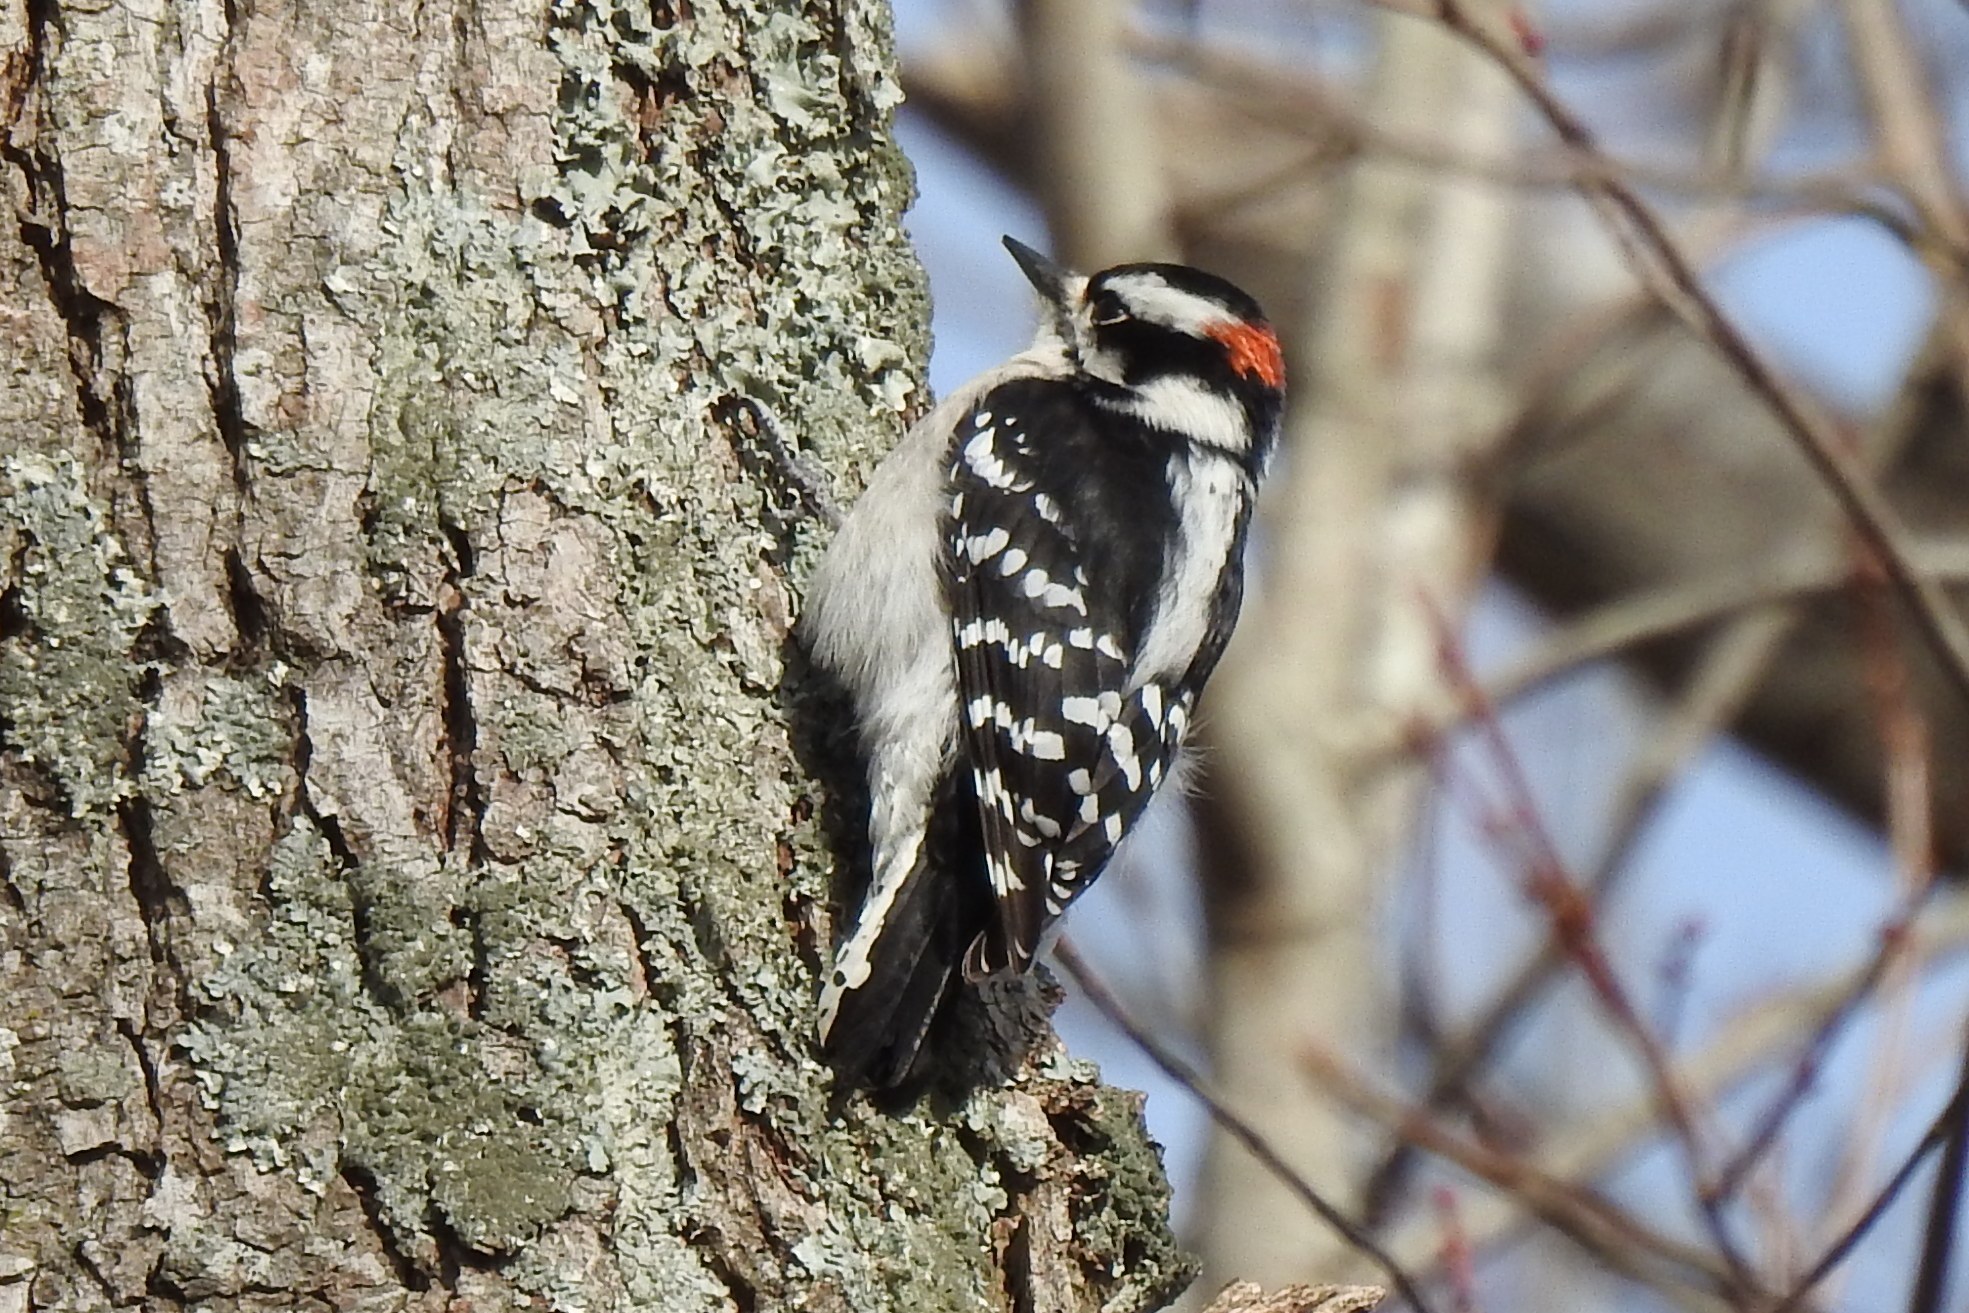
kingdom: Animalia
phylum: Chordata
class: Aves
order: Piciformes
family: Picidae
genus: Dryobates
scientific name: Dryobates pubescens
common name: Downy woodpecker
